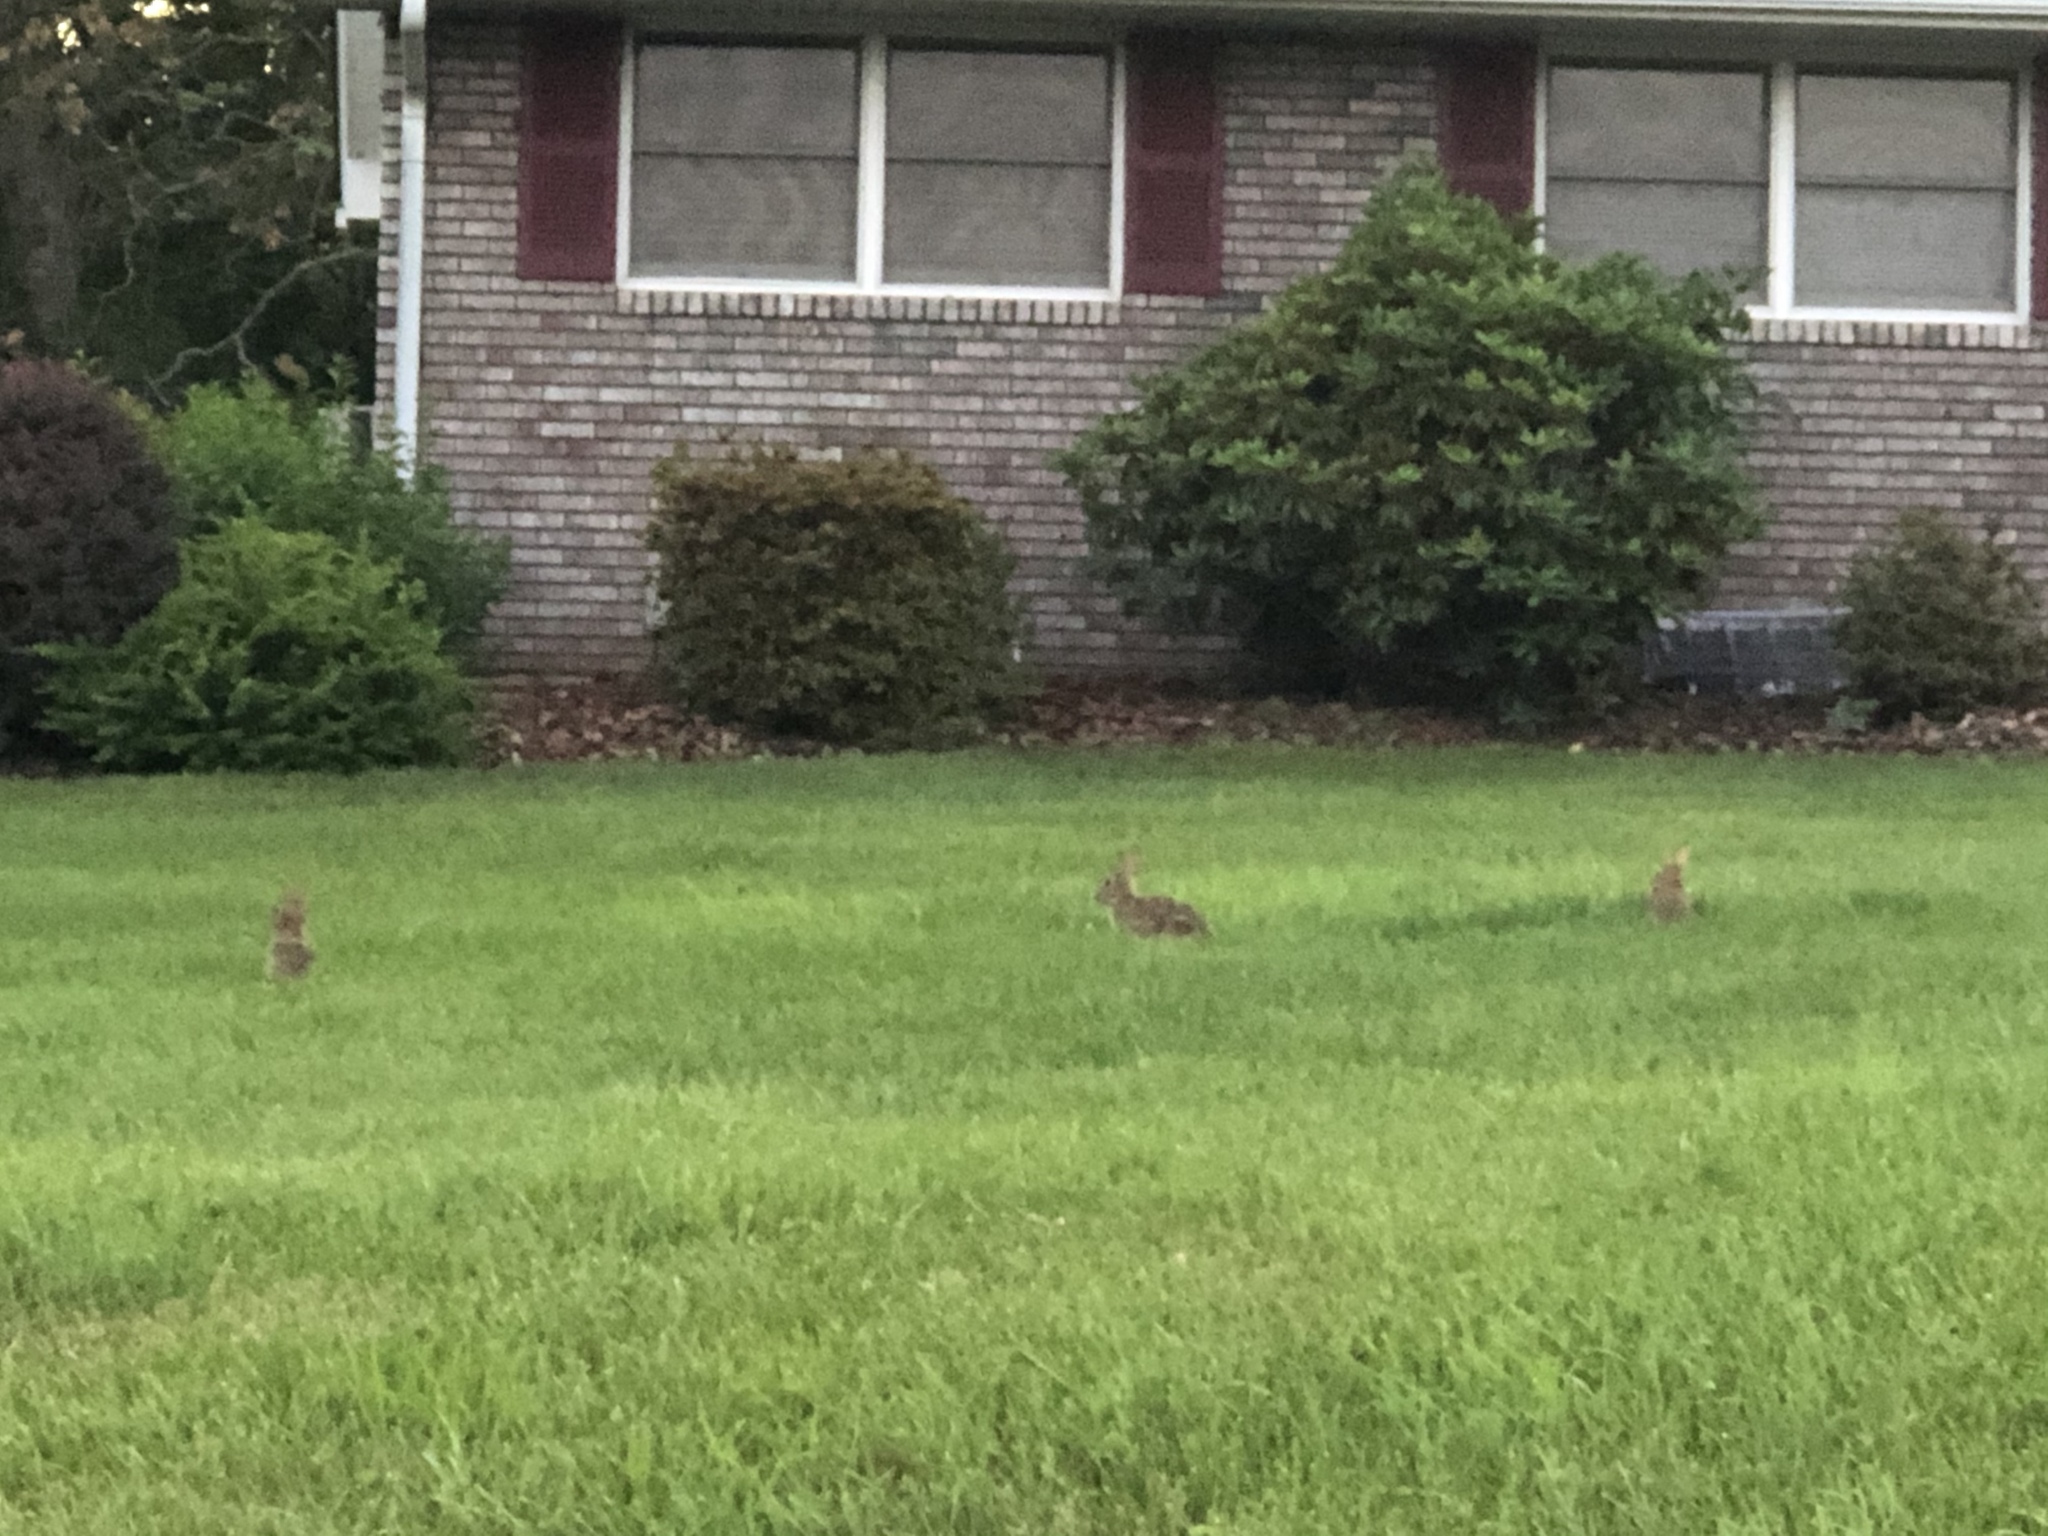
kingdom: Animalia
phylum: Chordata
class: Mammalia
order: Lagomorpha
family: Leporidae
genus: Sylvilagus
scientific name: Sylvilagus floridanus
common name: Eastern cottontail
